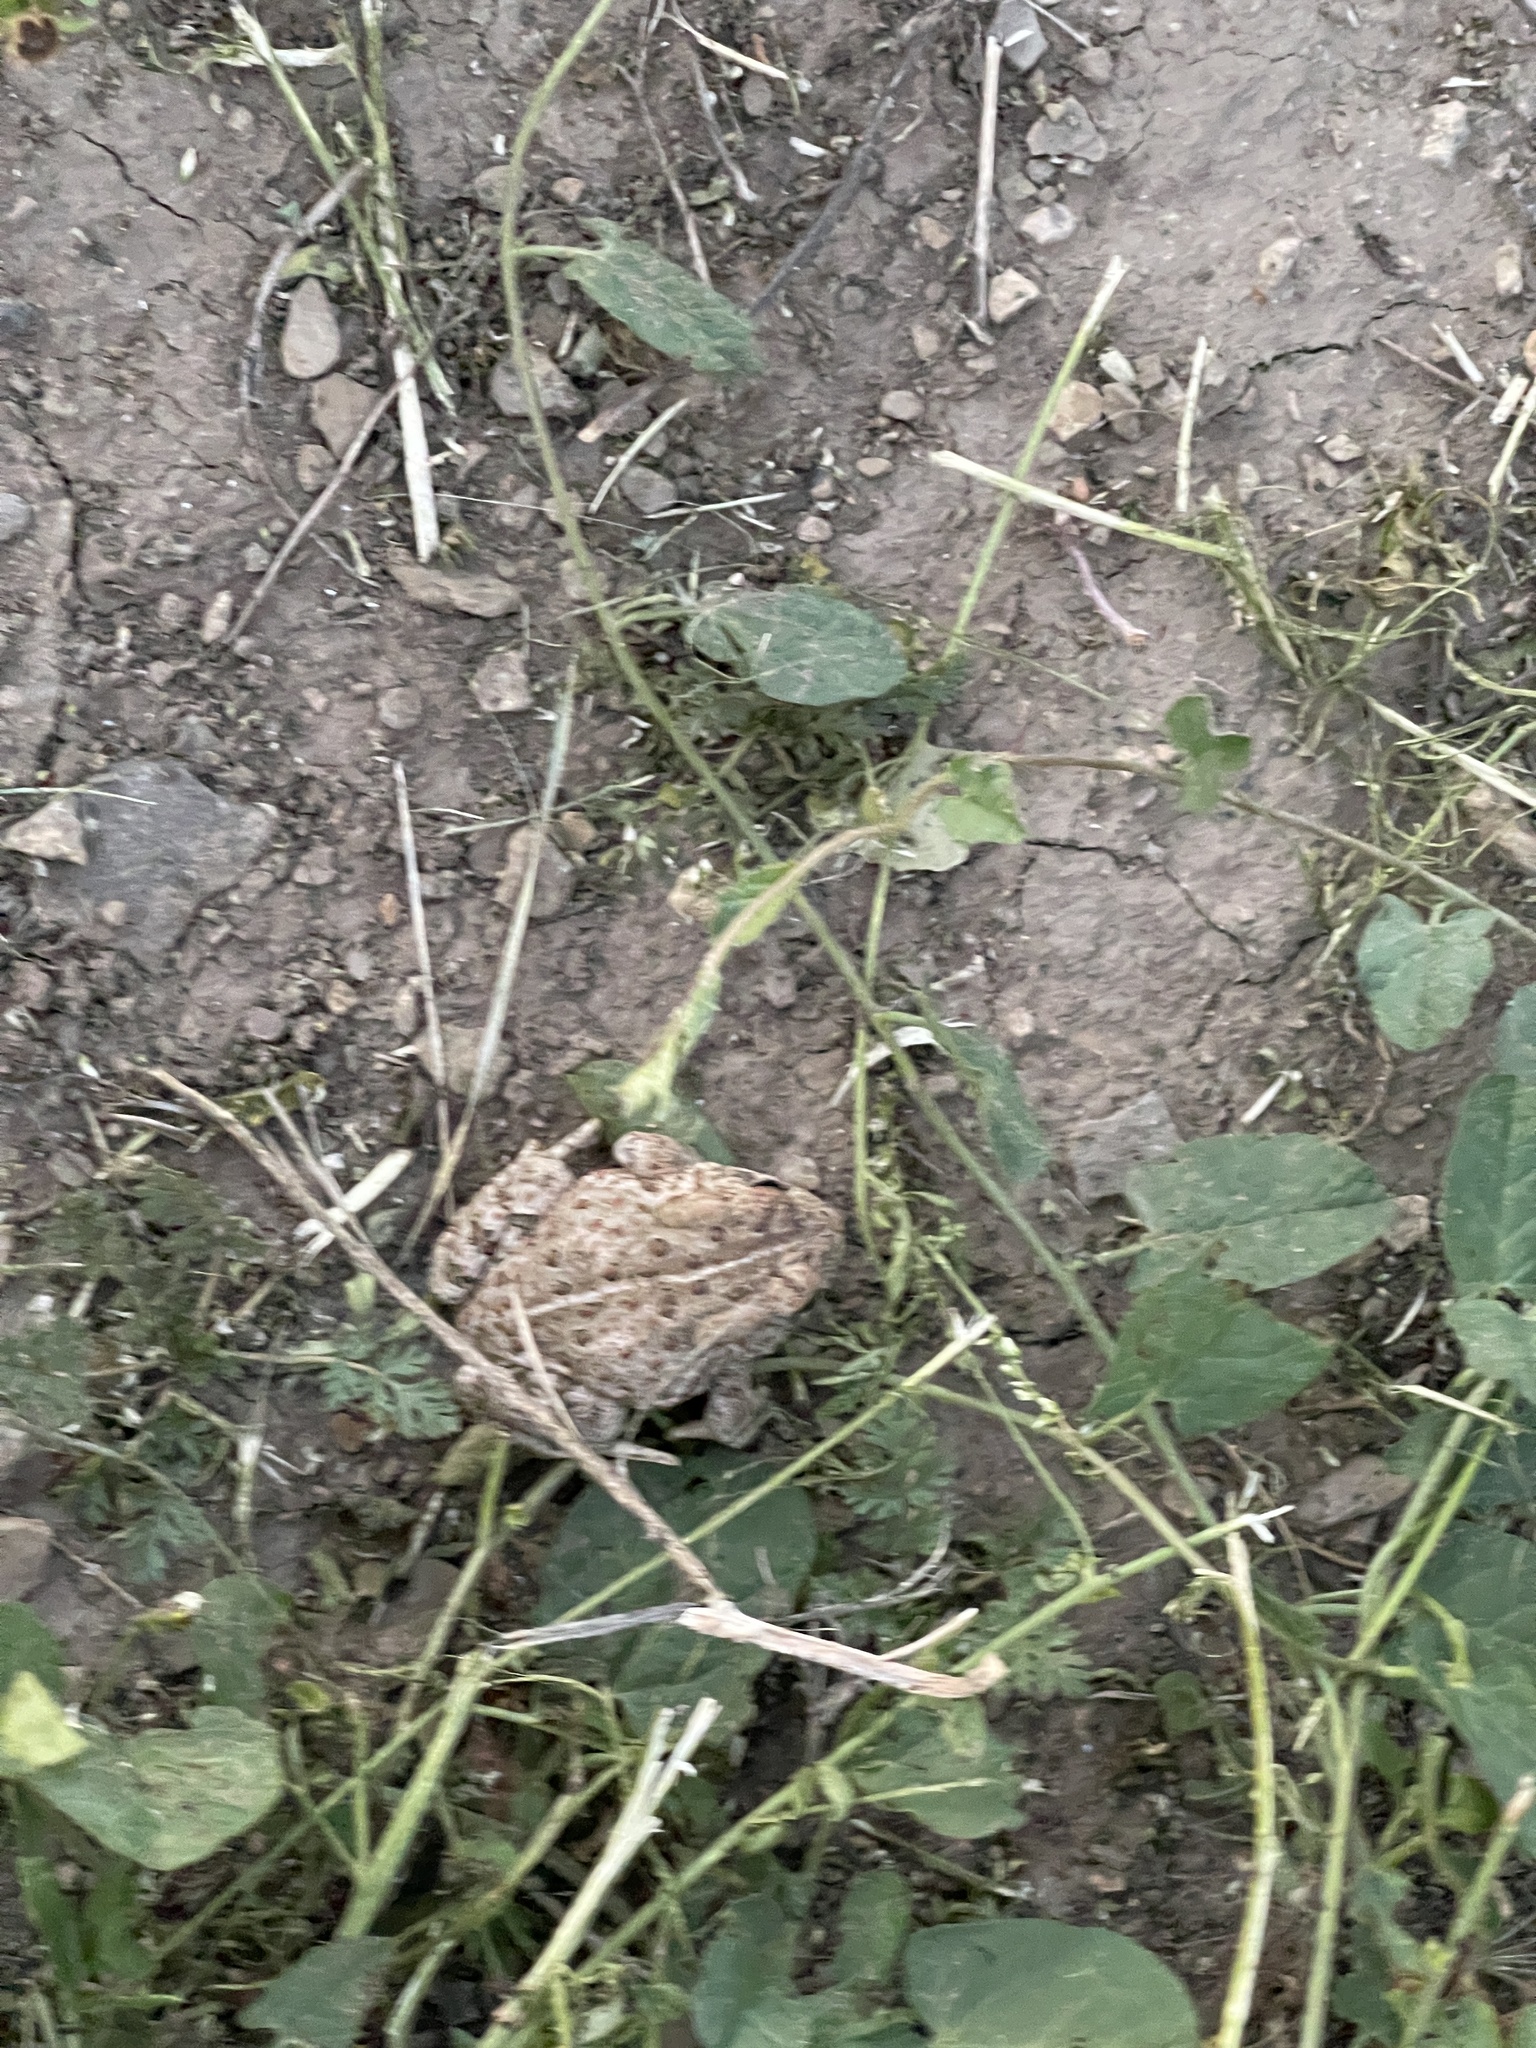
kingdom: Animalia
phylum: Chordata
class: Amphibia
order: Anura
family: Bufonidae
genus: Anaxyrus
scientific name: Anaxyrus woodhousii
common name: Woodhouse's toad
